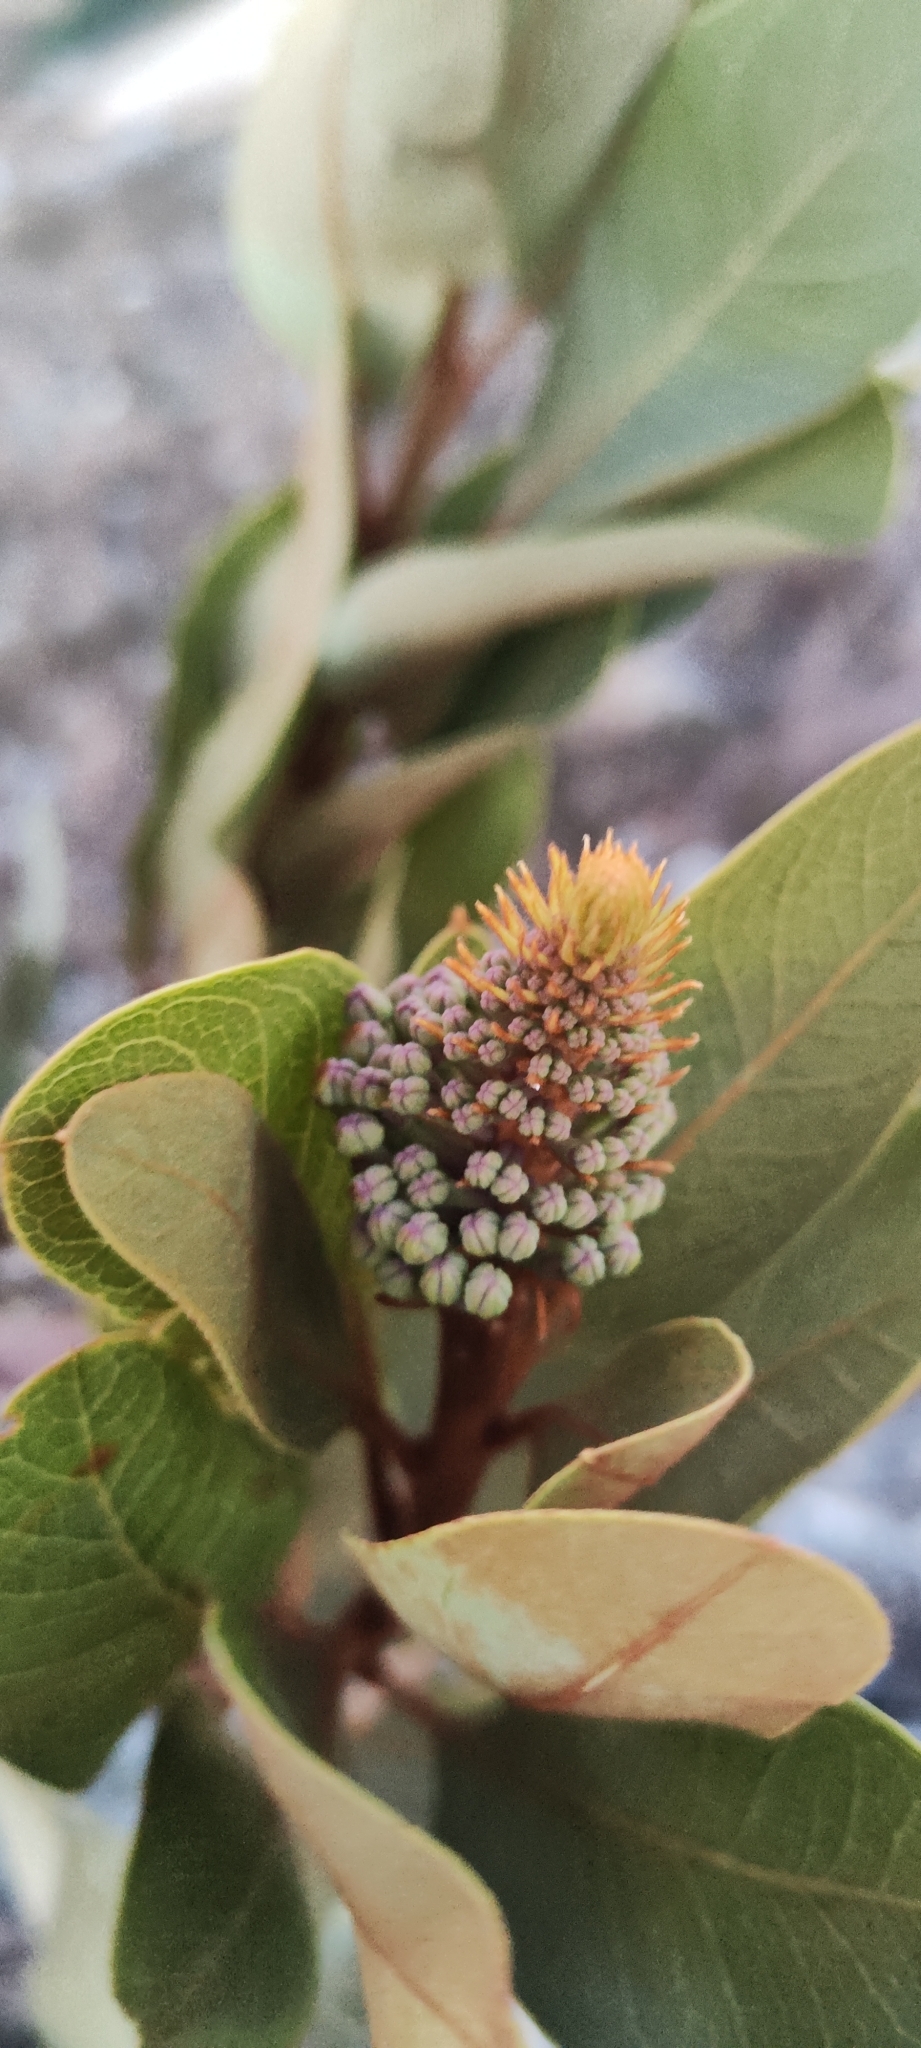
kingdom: Plantae
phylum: Tracheophyta
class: Magnoliopsida
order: Proteales
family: Proteaceae
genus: Oreocallis
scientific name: Oreocallis grandiflora
